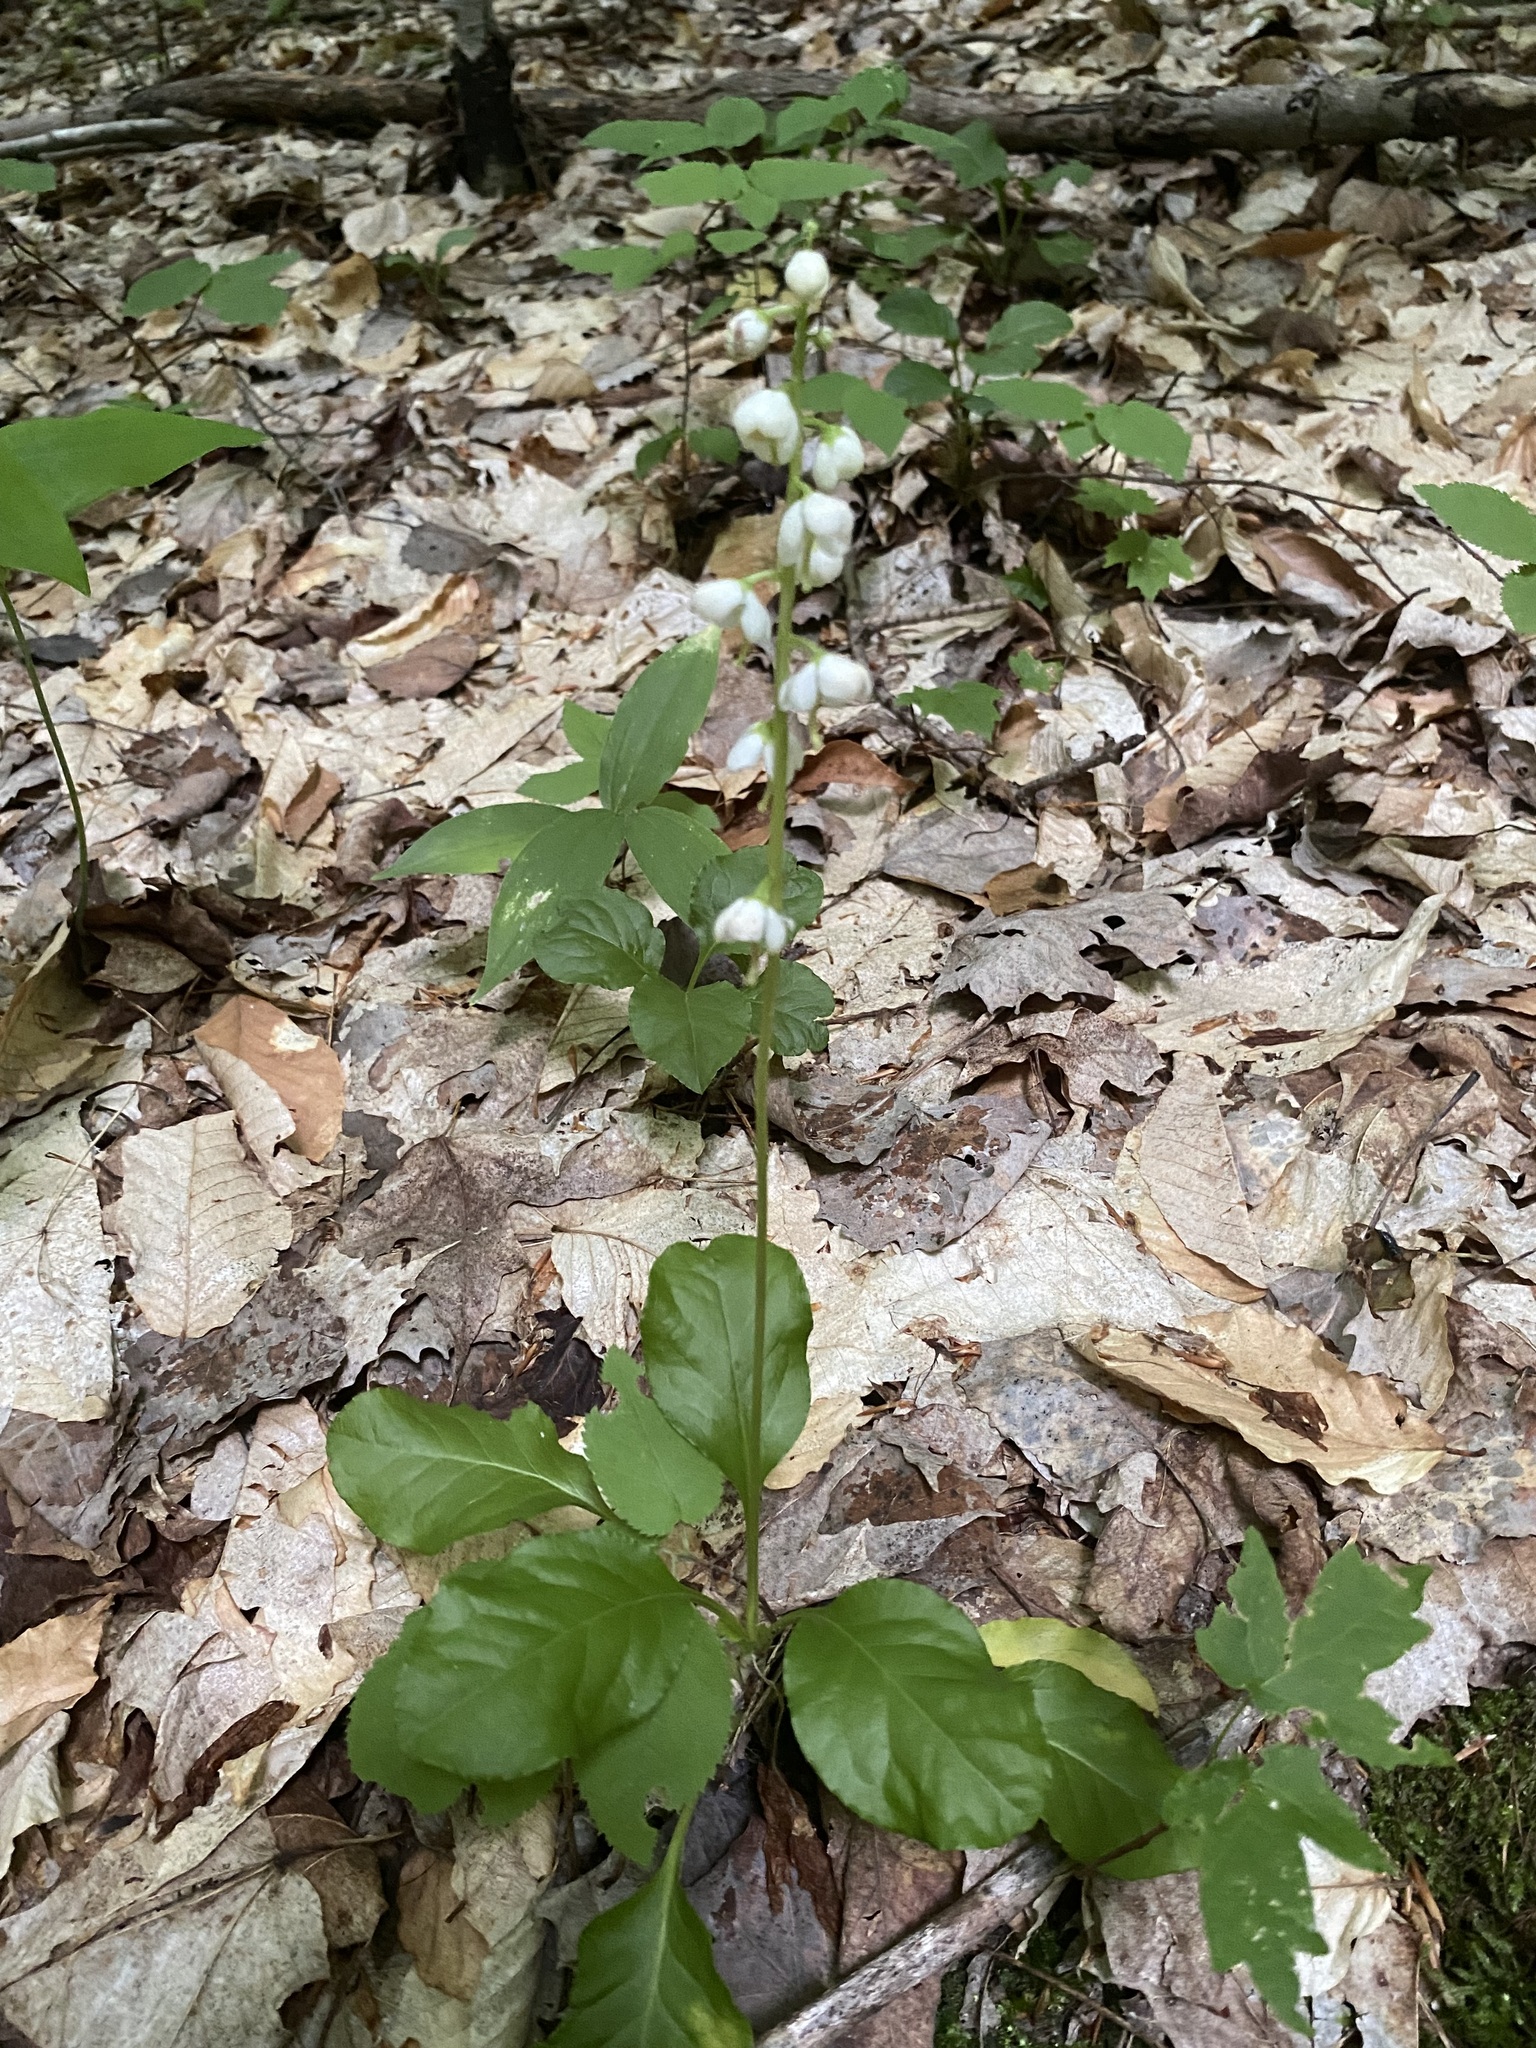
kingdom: Plantae
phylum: Tracheophyta
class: Magnoliopsida
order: Ericales
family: Ericaceae
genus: Pyrola
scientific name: Pyrola elliptica
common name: Shinleaf
